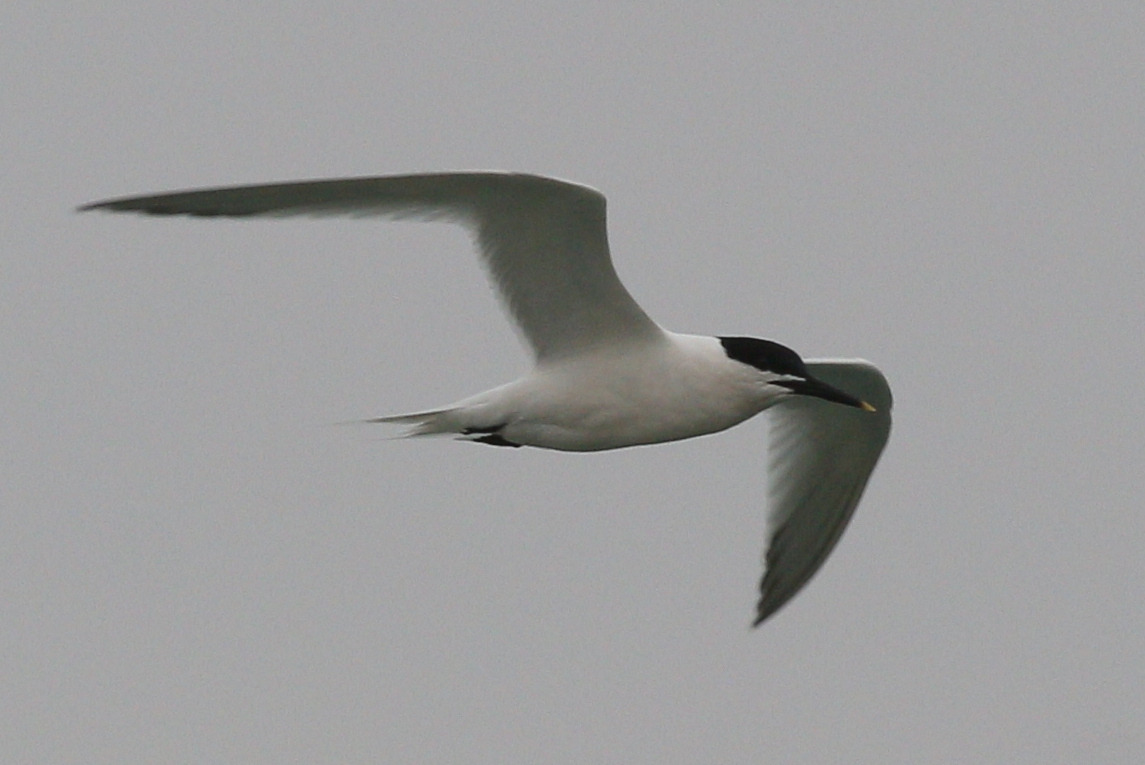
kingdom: Animalia
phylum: Chordata
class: Aves
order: Charadriiformes
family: Laridae
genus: Thalasseus
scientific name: Thalasseus sandvicensis
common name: Sandwich tern
